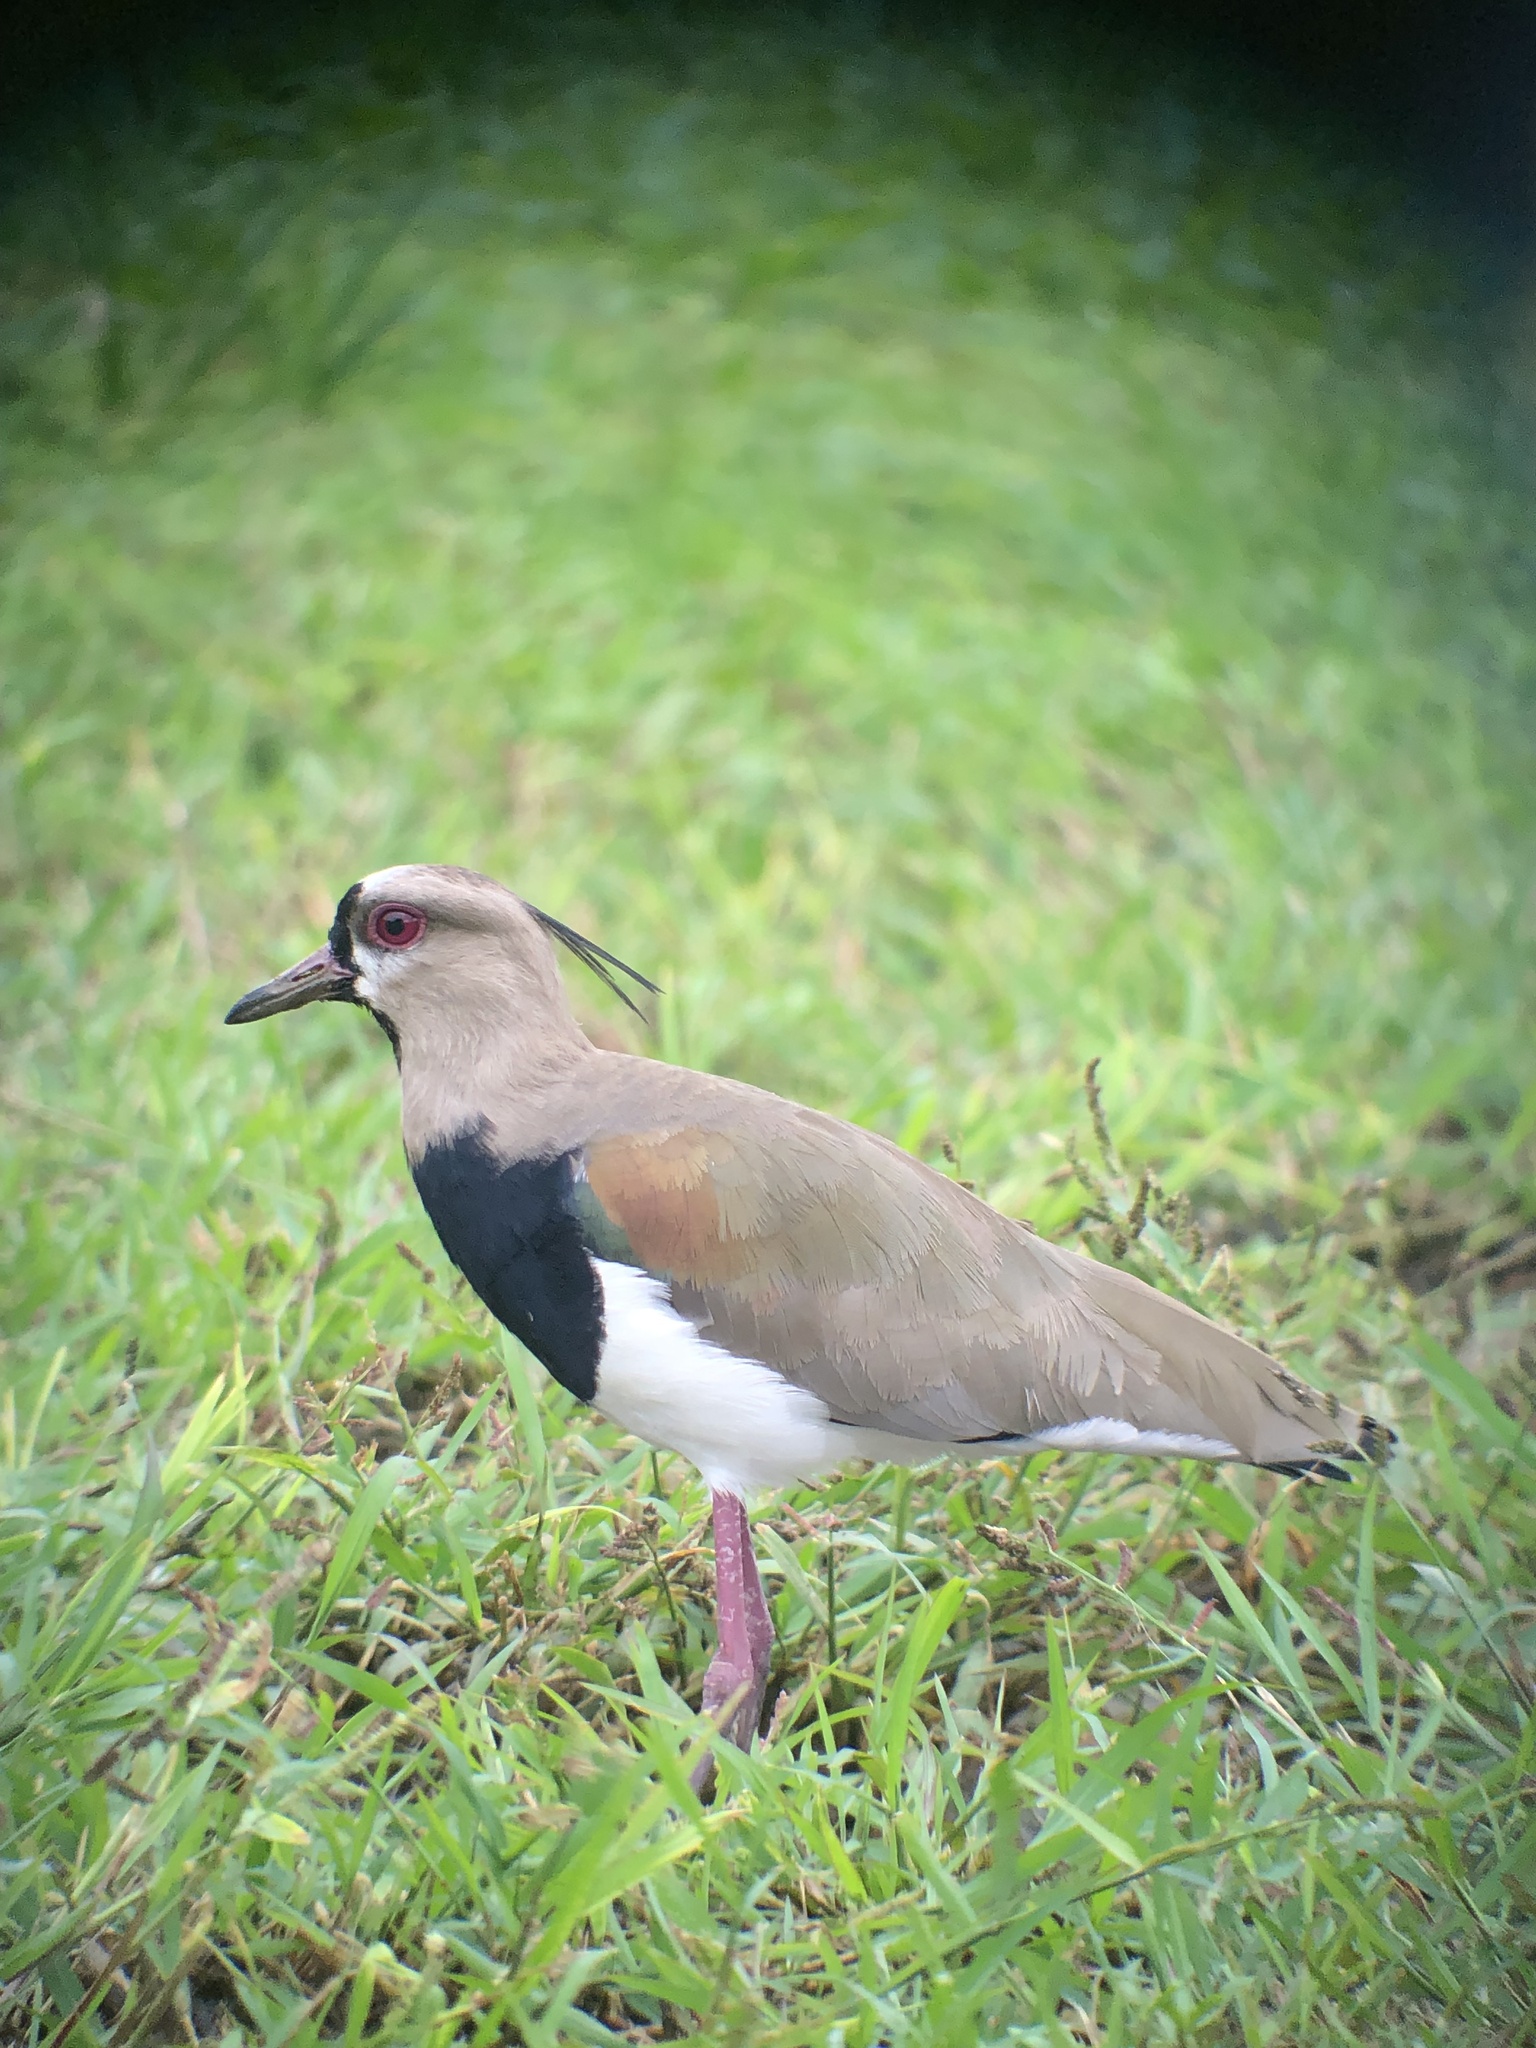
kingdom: Animalia
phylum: Chordata
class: Aves
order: Charadriiformes
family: Charadriidae
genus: Vanellus
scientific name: Vanellus chilensis
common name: Southern lapwing
